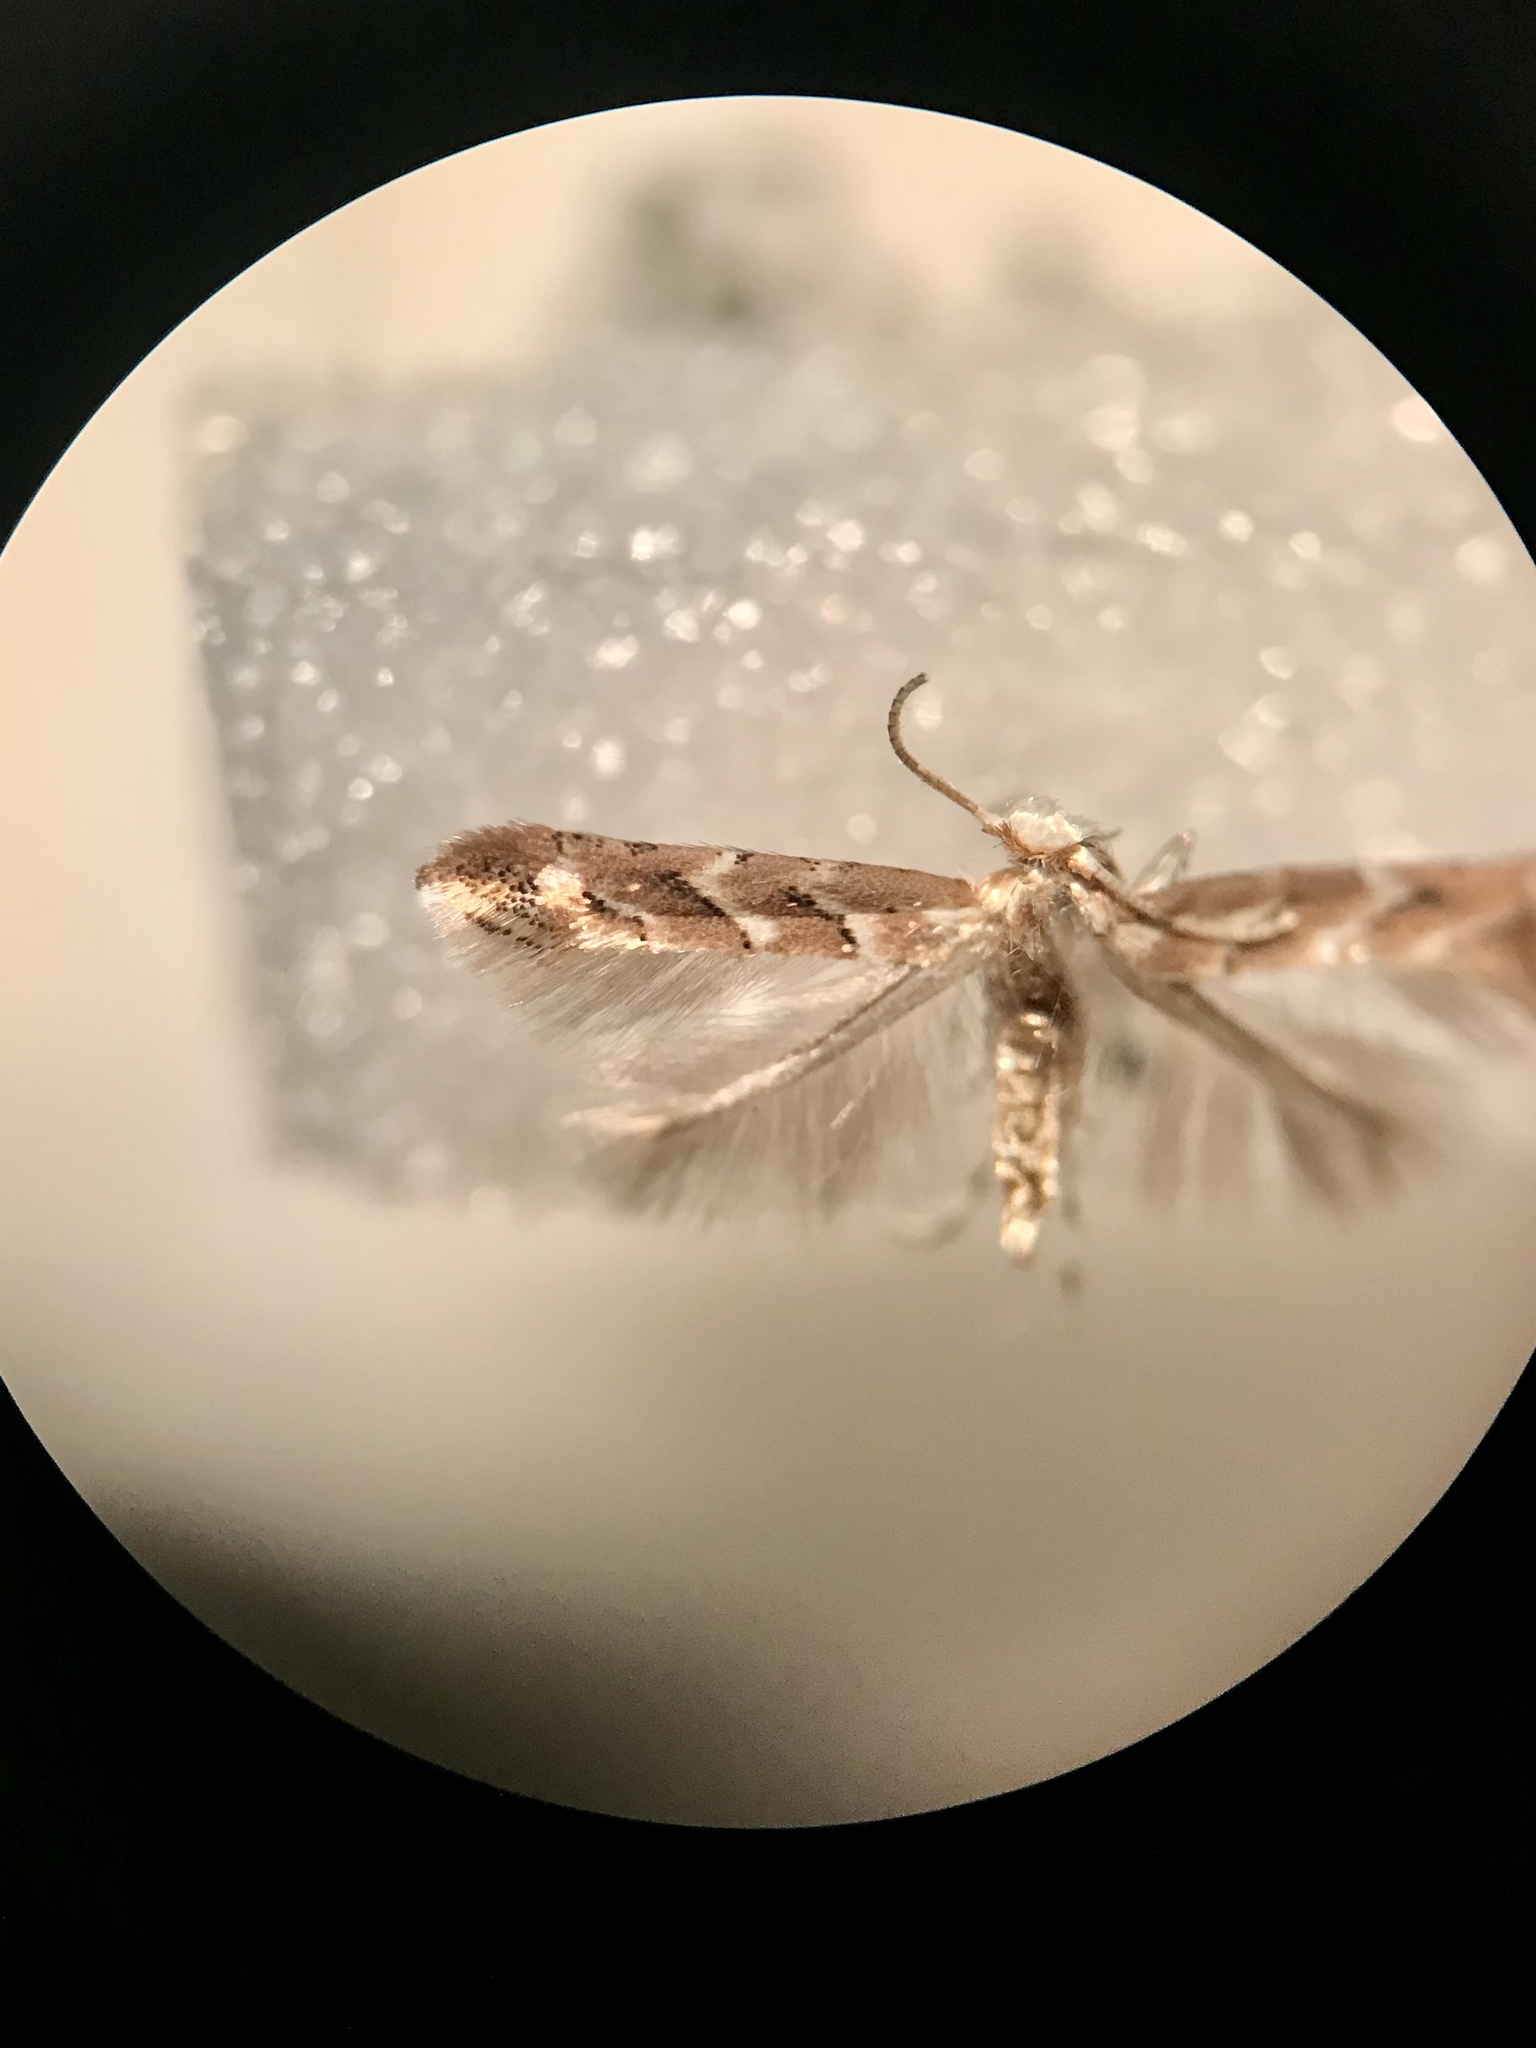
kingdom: Animalia
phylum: Arthropoda
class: Insecta
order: Lepidoptera
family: Gracillariidae
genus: Cameraria
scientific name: Cameraria macrocarpella
